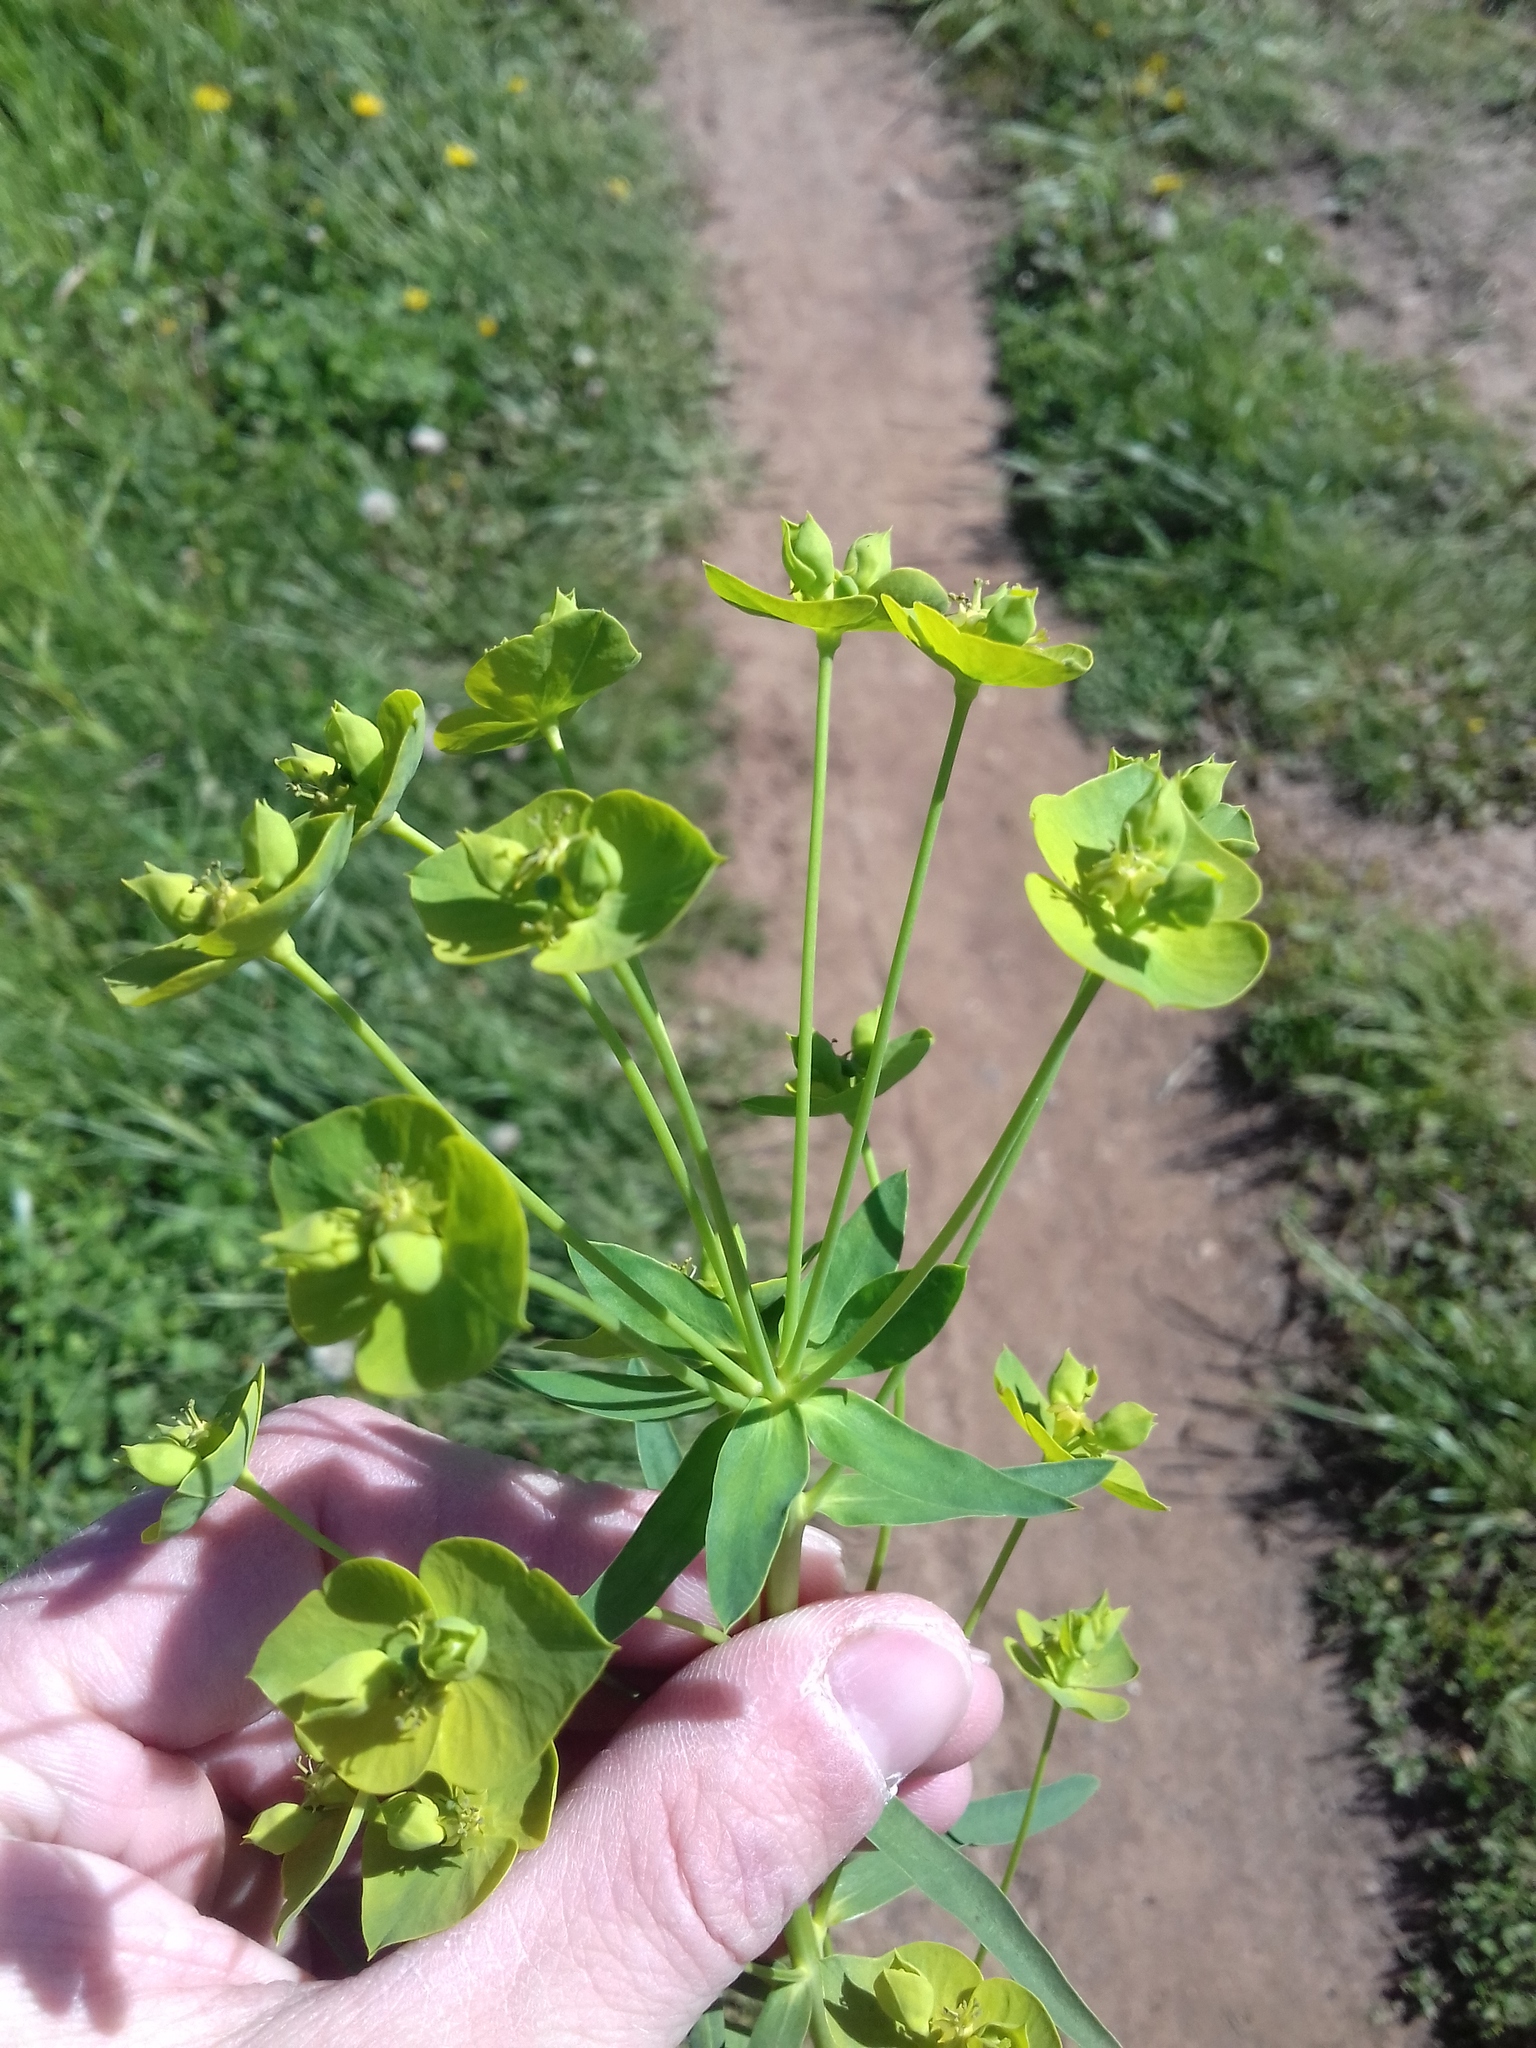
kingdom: Plantae
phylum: Tracheophyta
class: Magnoliopsida
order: Malpighiales
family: Euphorbiaceae
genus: Euphorbia
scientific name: Euphorbia virgata
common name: Leafy spurge
